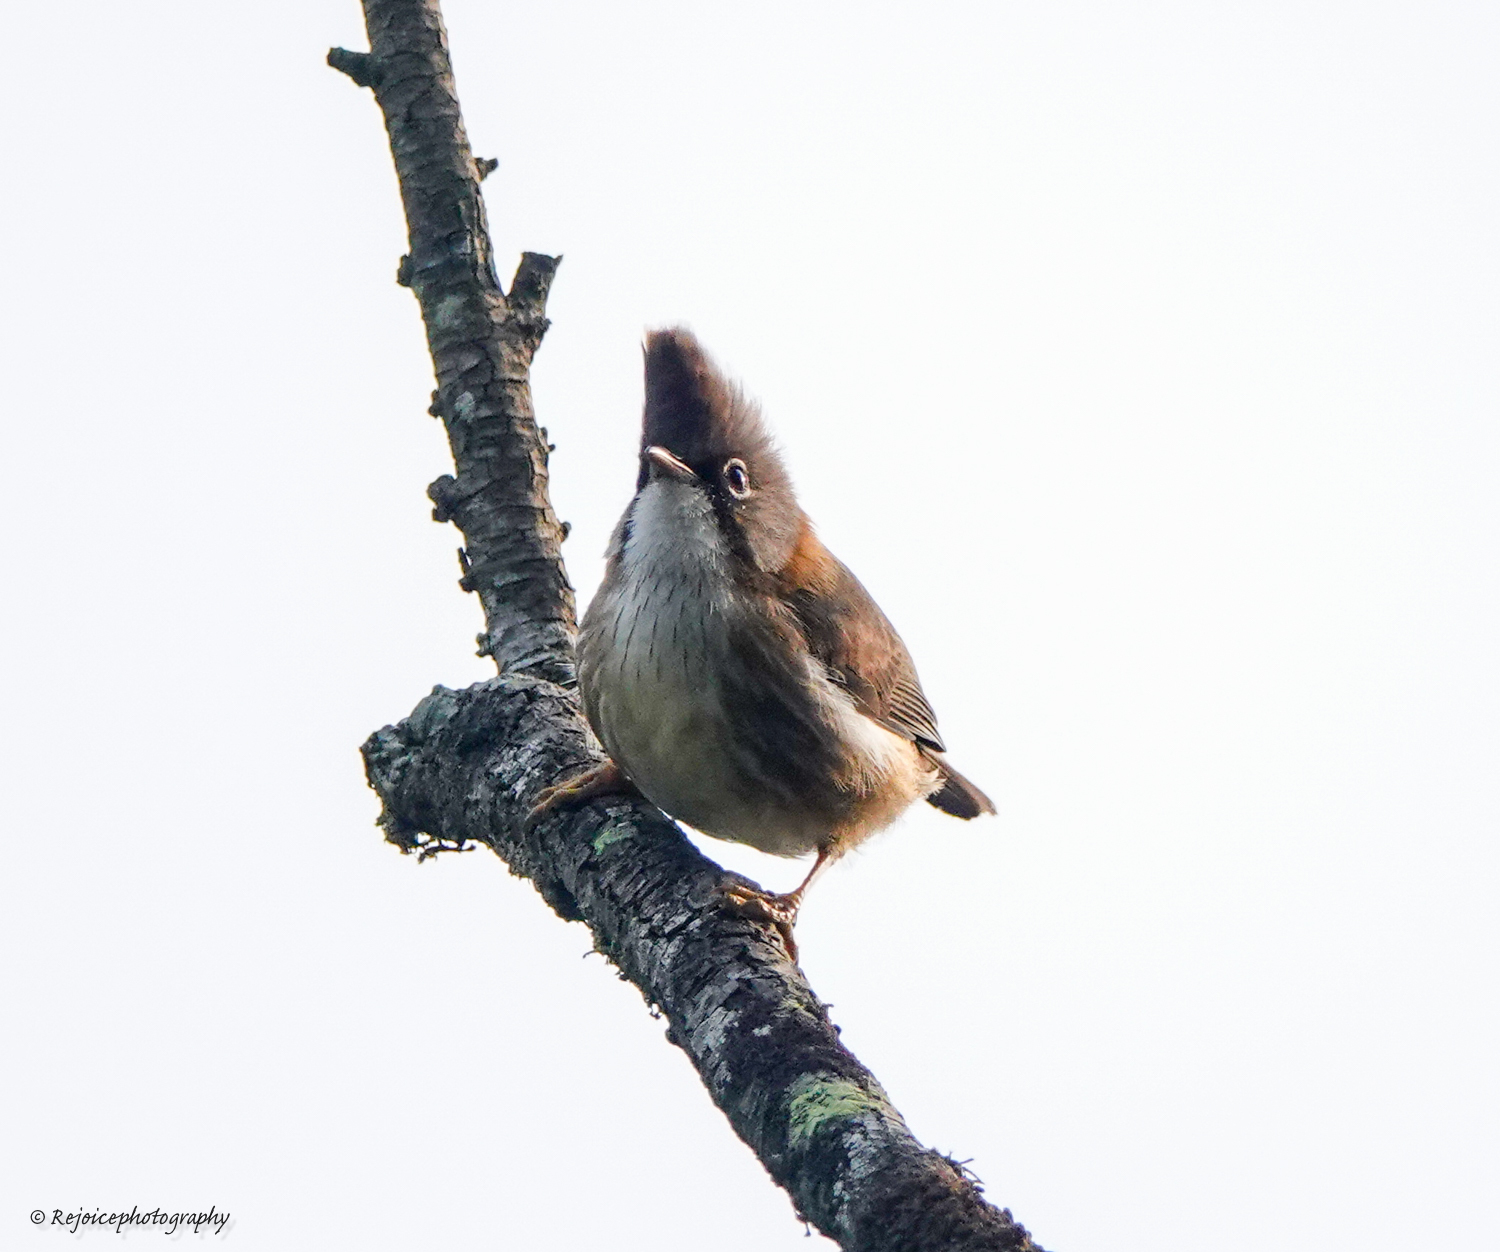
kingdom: Animalia
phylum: Chordata
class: Aves
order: Passeriformes
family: Zosteropidae
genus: Yuhina
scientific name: Yuhina flavicollis
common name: Whiskered yuhina
